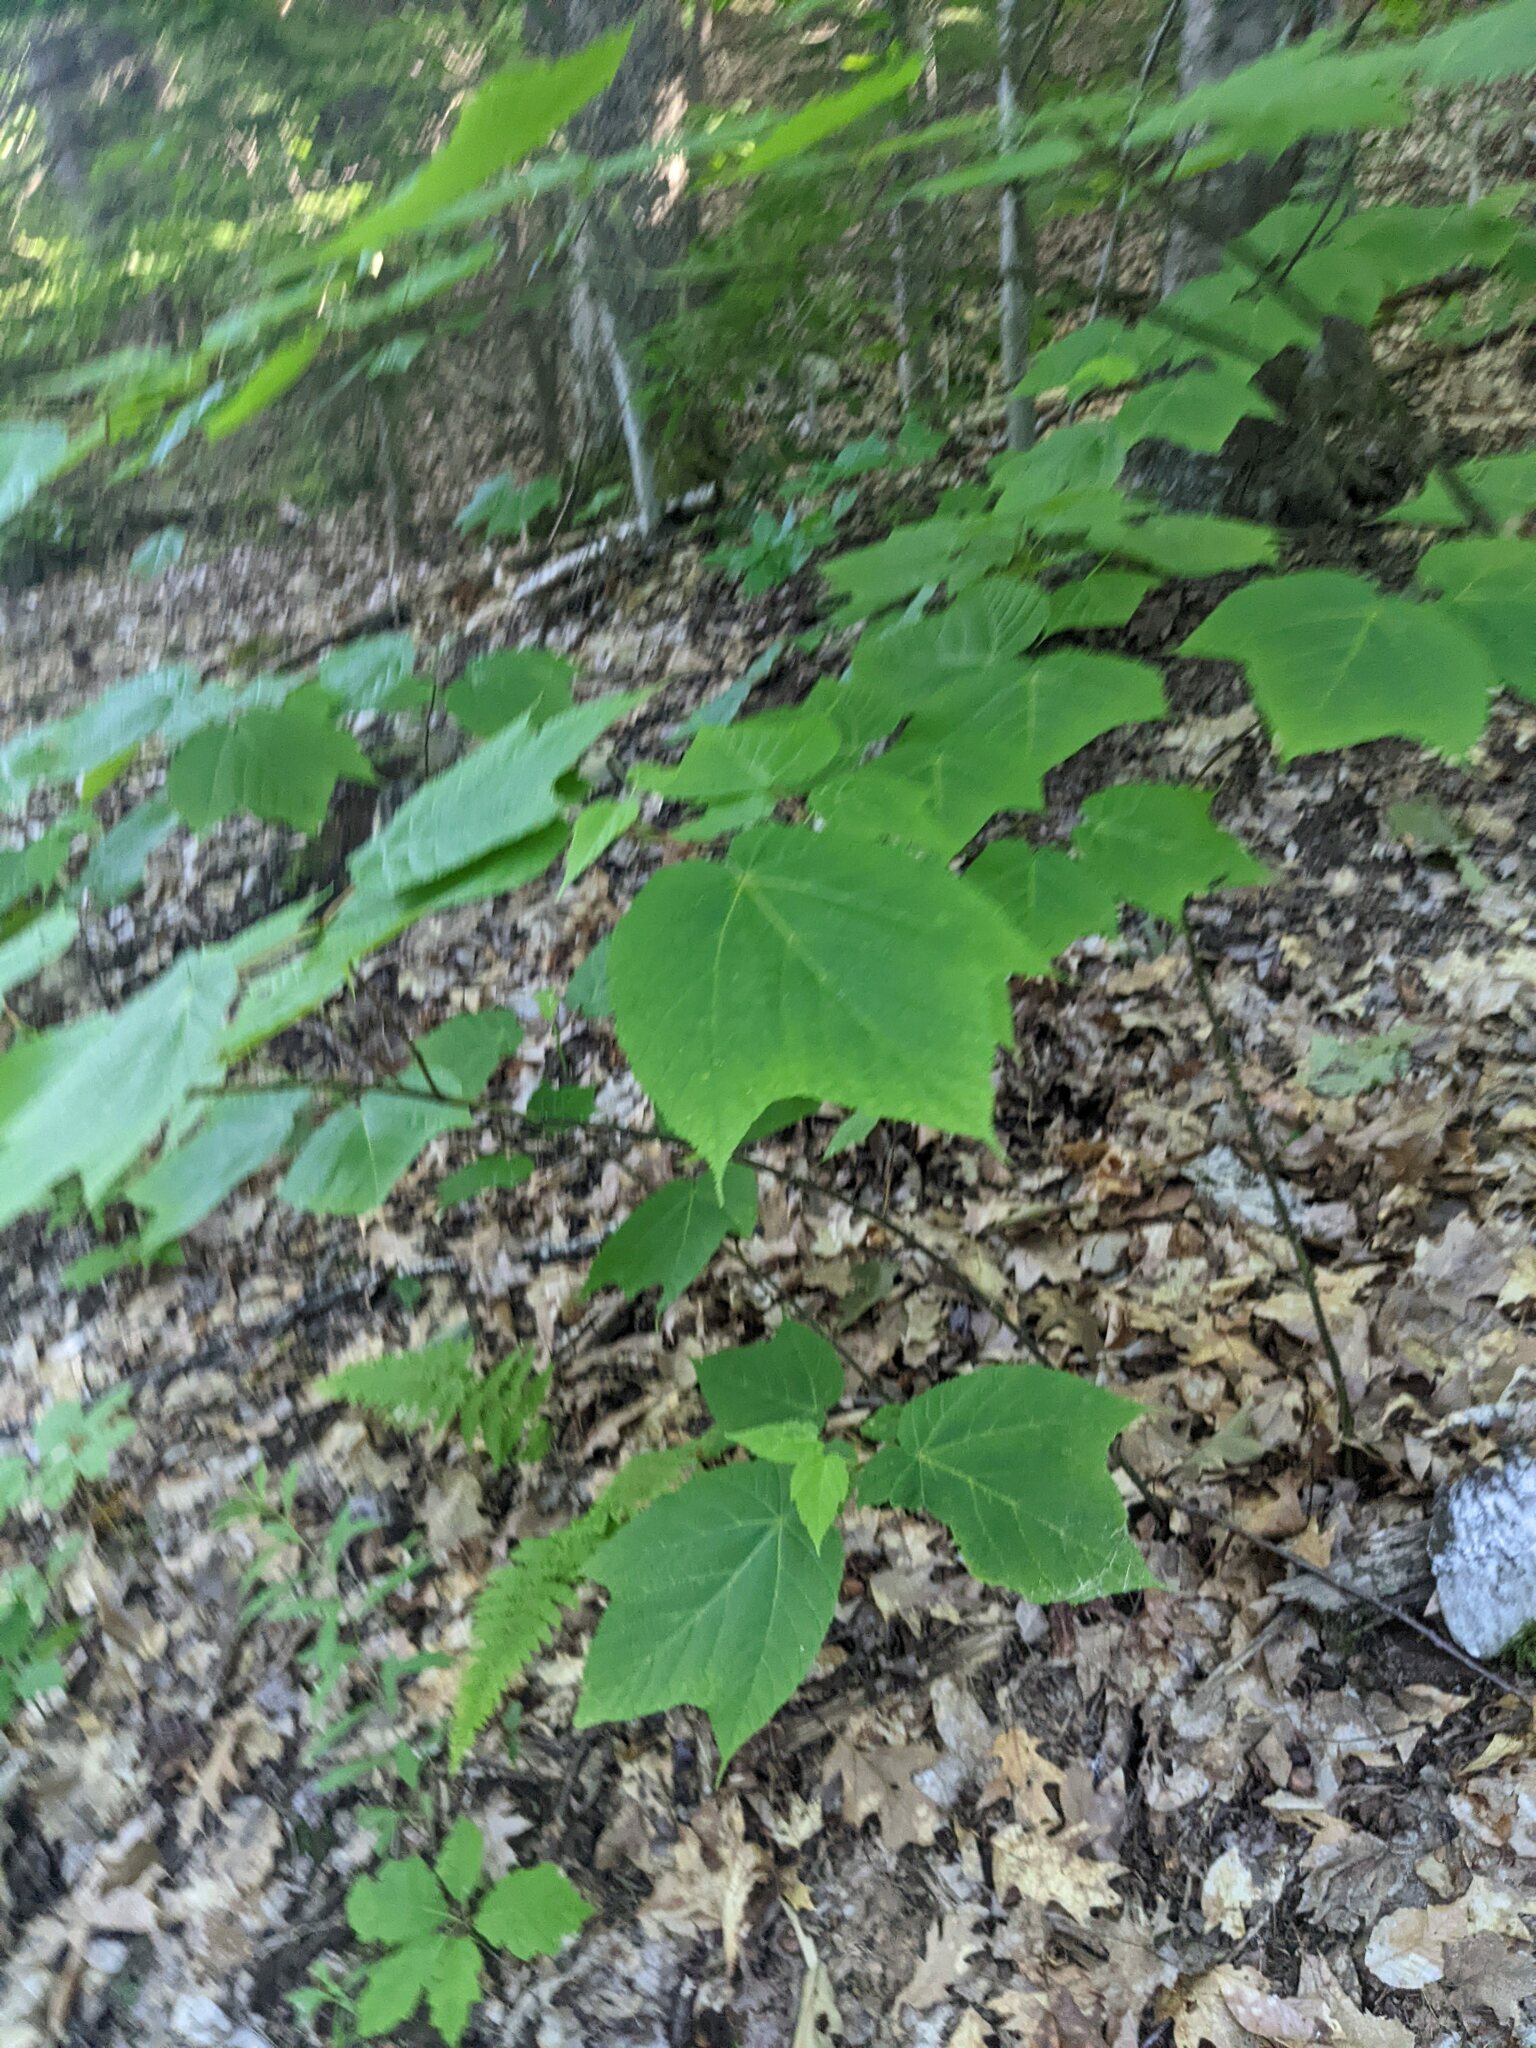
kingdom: Plantae
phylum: Tracheophyta
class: Magnoliopsida
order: Sapindales
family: Sapindaceae
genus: Acer
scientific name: Acer pensylvanicum
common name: Moosewood
